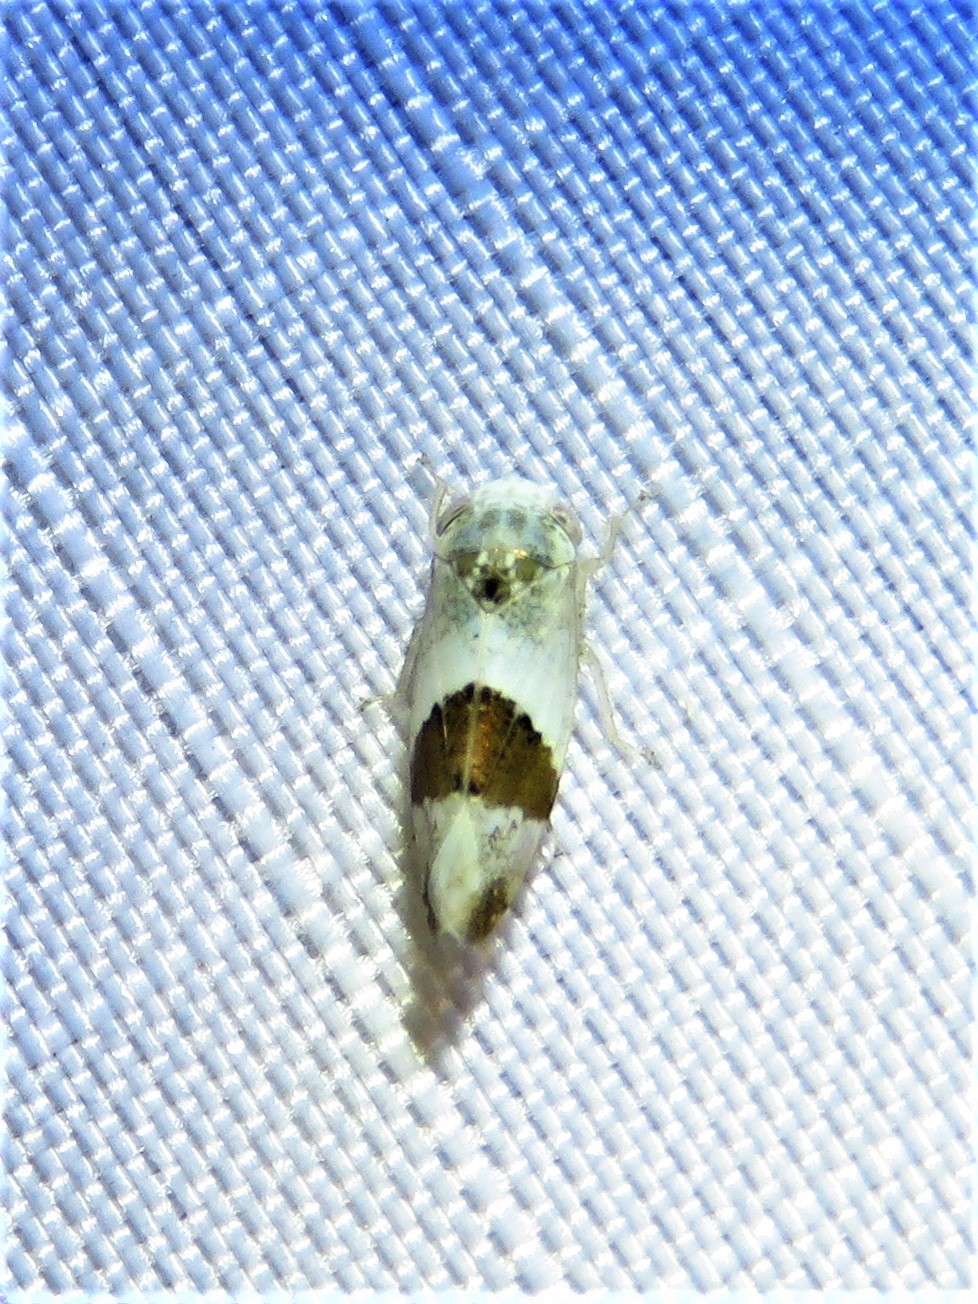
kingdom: Animalia
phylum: Arthropoda
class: Insecta
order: Hemiptera
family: Cicadellidae
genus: Norvellina
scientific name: Norvellina seminuda
